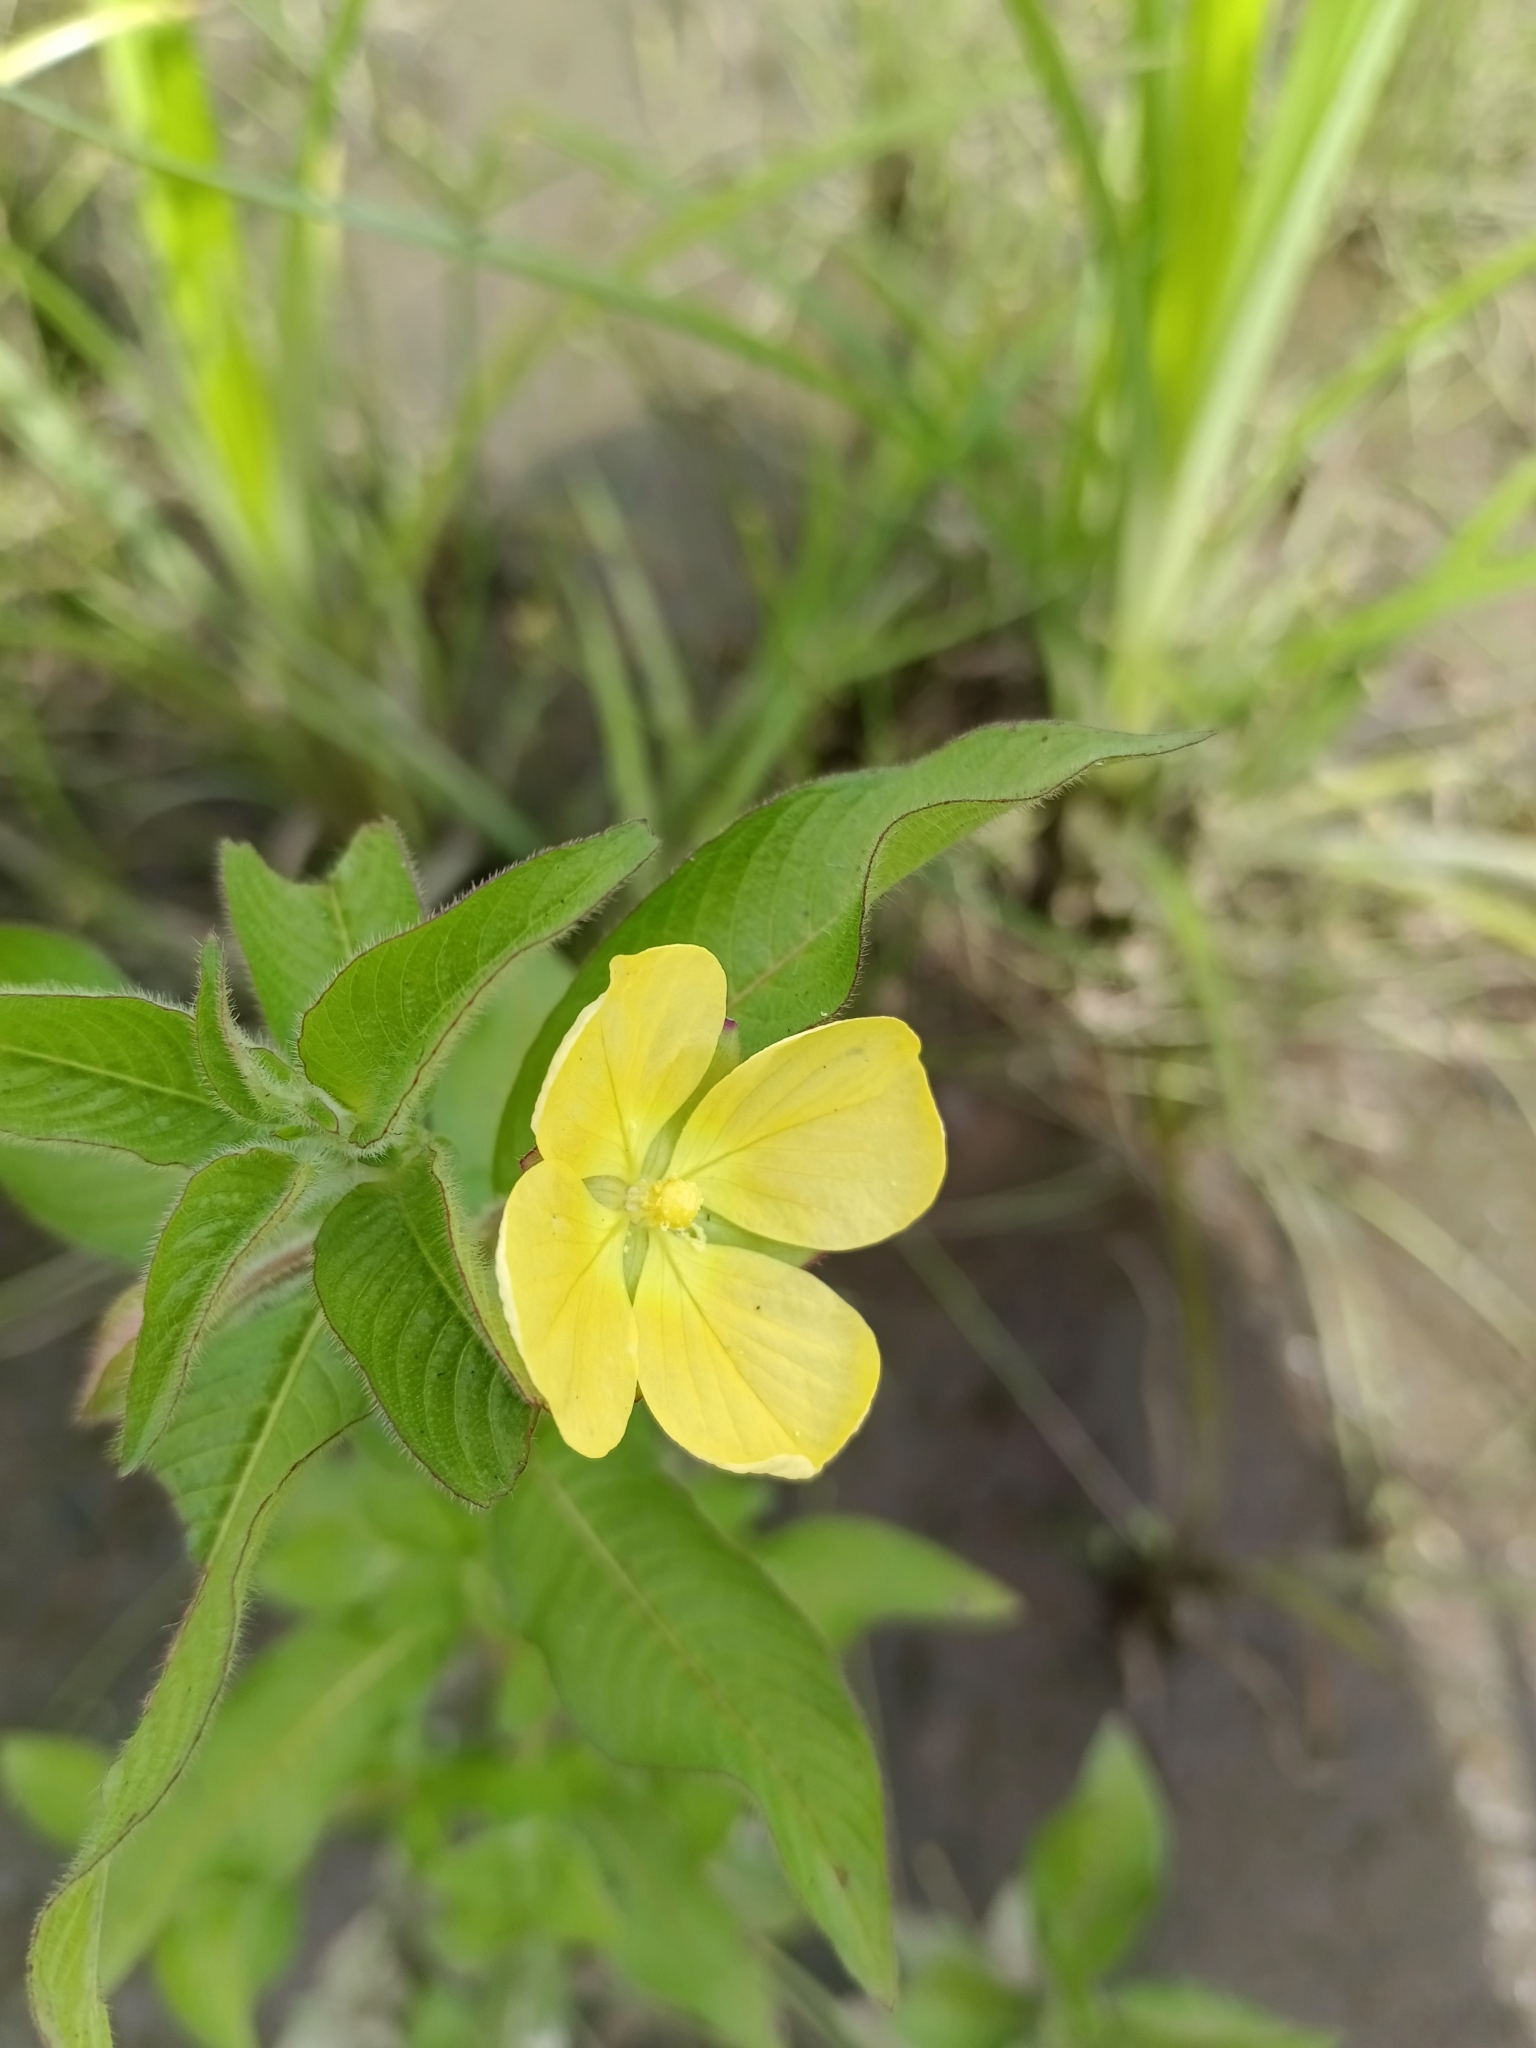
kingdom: Plantae
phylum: Tracheophyta
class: Magnoliopsida
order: Myrtales
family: Onagraceae
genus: Ludwigia
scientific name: Ludwigia octovalvis
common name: Water-primrose
